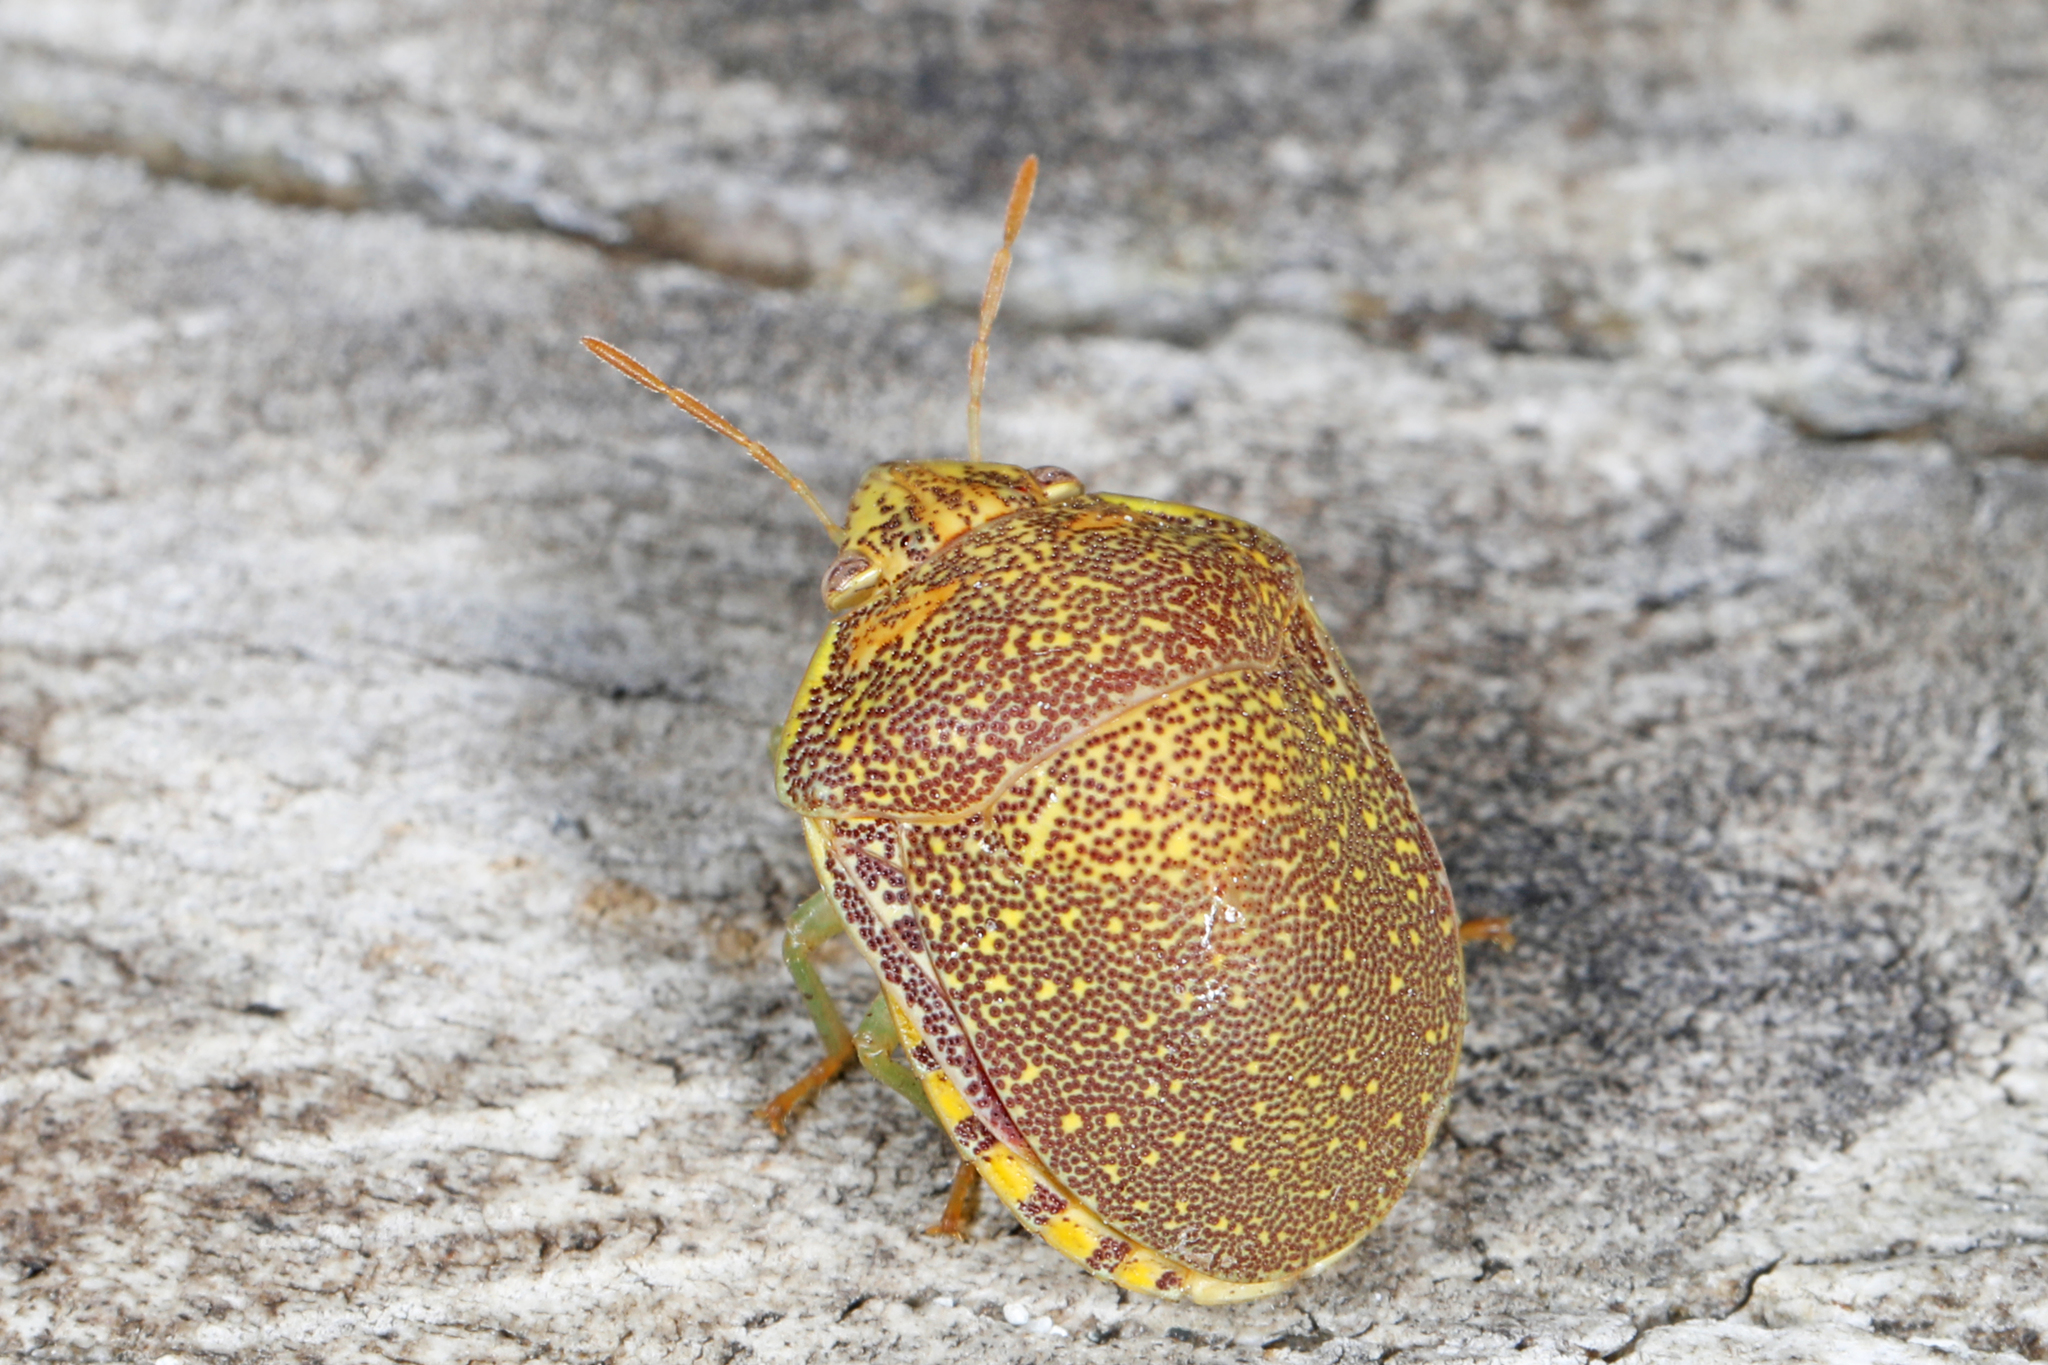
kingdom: Animalia
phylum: Arthropoda
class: Insecta
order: Hemiptera
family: Scutelleridae
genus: Diolcus
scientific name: Diolcus irroratus
